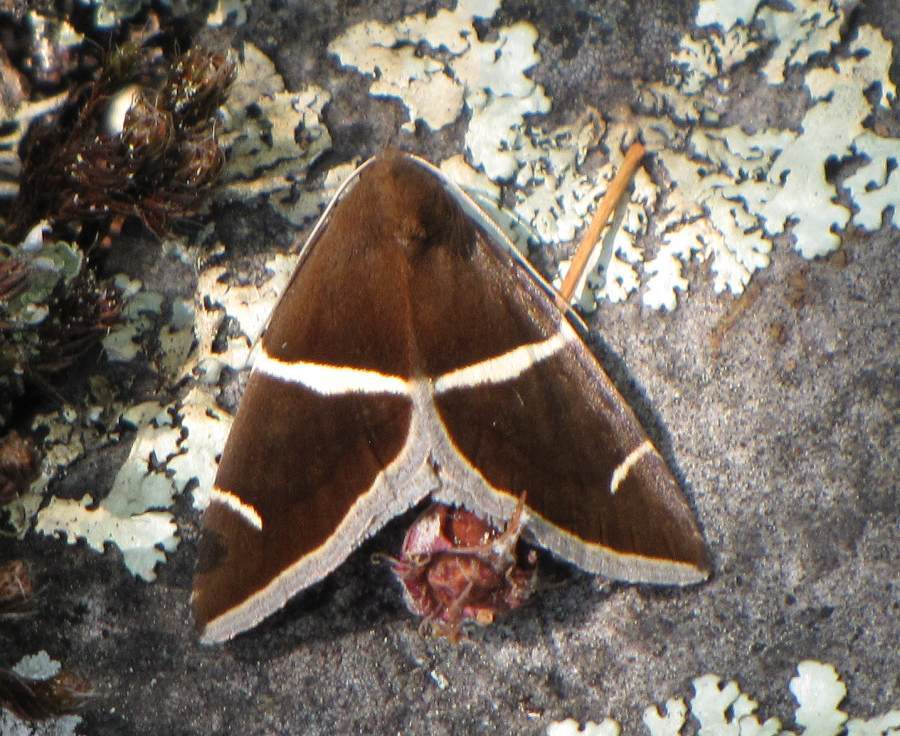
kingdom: Animalia
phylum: Arthropoda
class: Insecta
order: Lepidoptera
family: Erebidae
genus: Argyrostrotis
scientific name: Argyrostrotis anilis
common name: Short-lined chocolate
